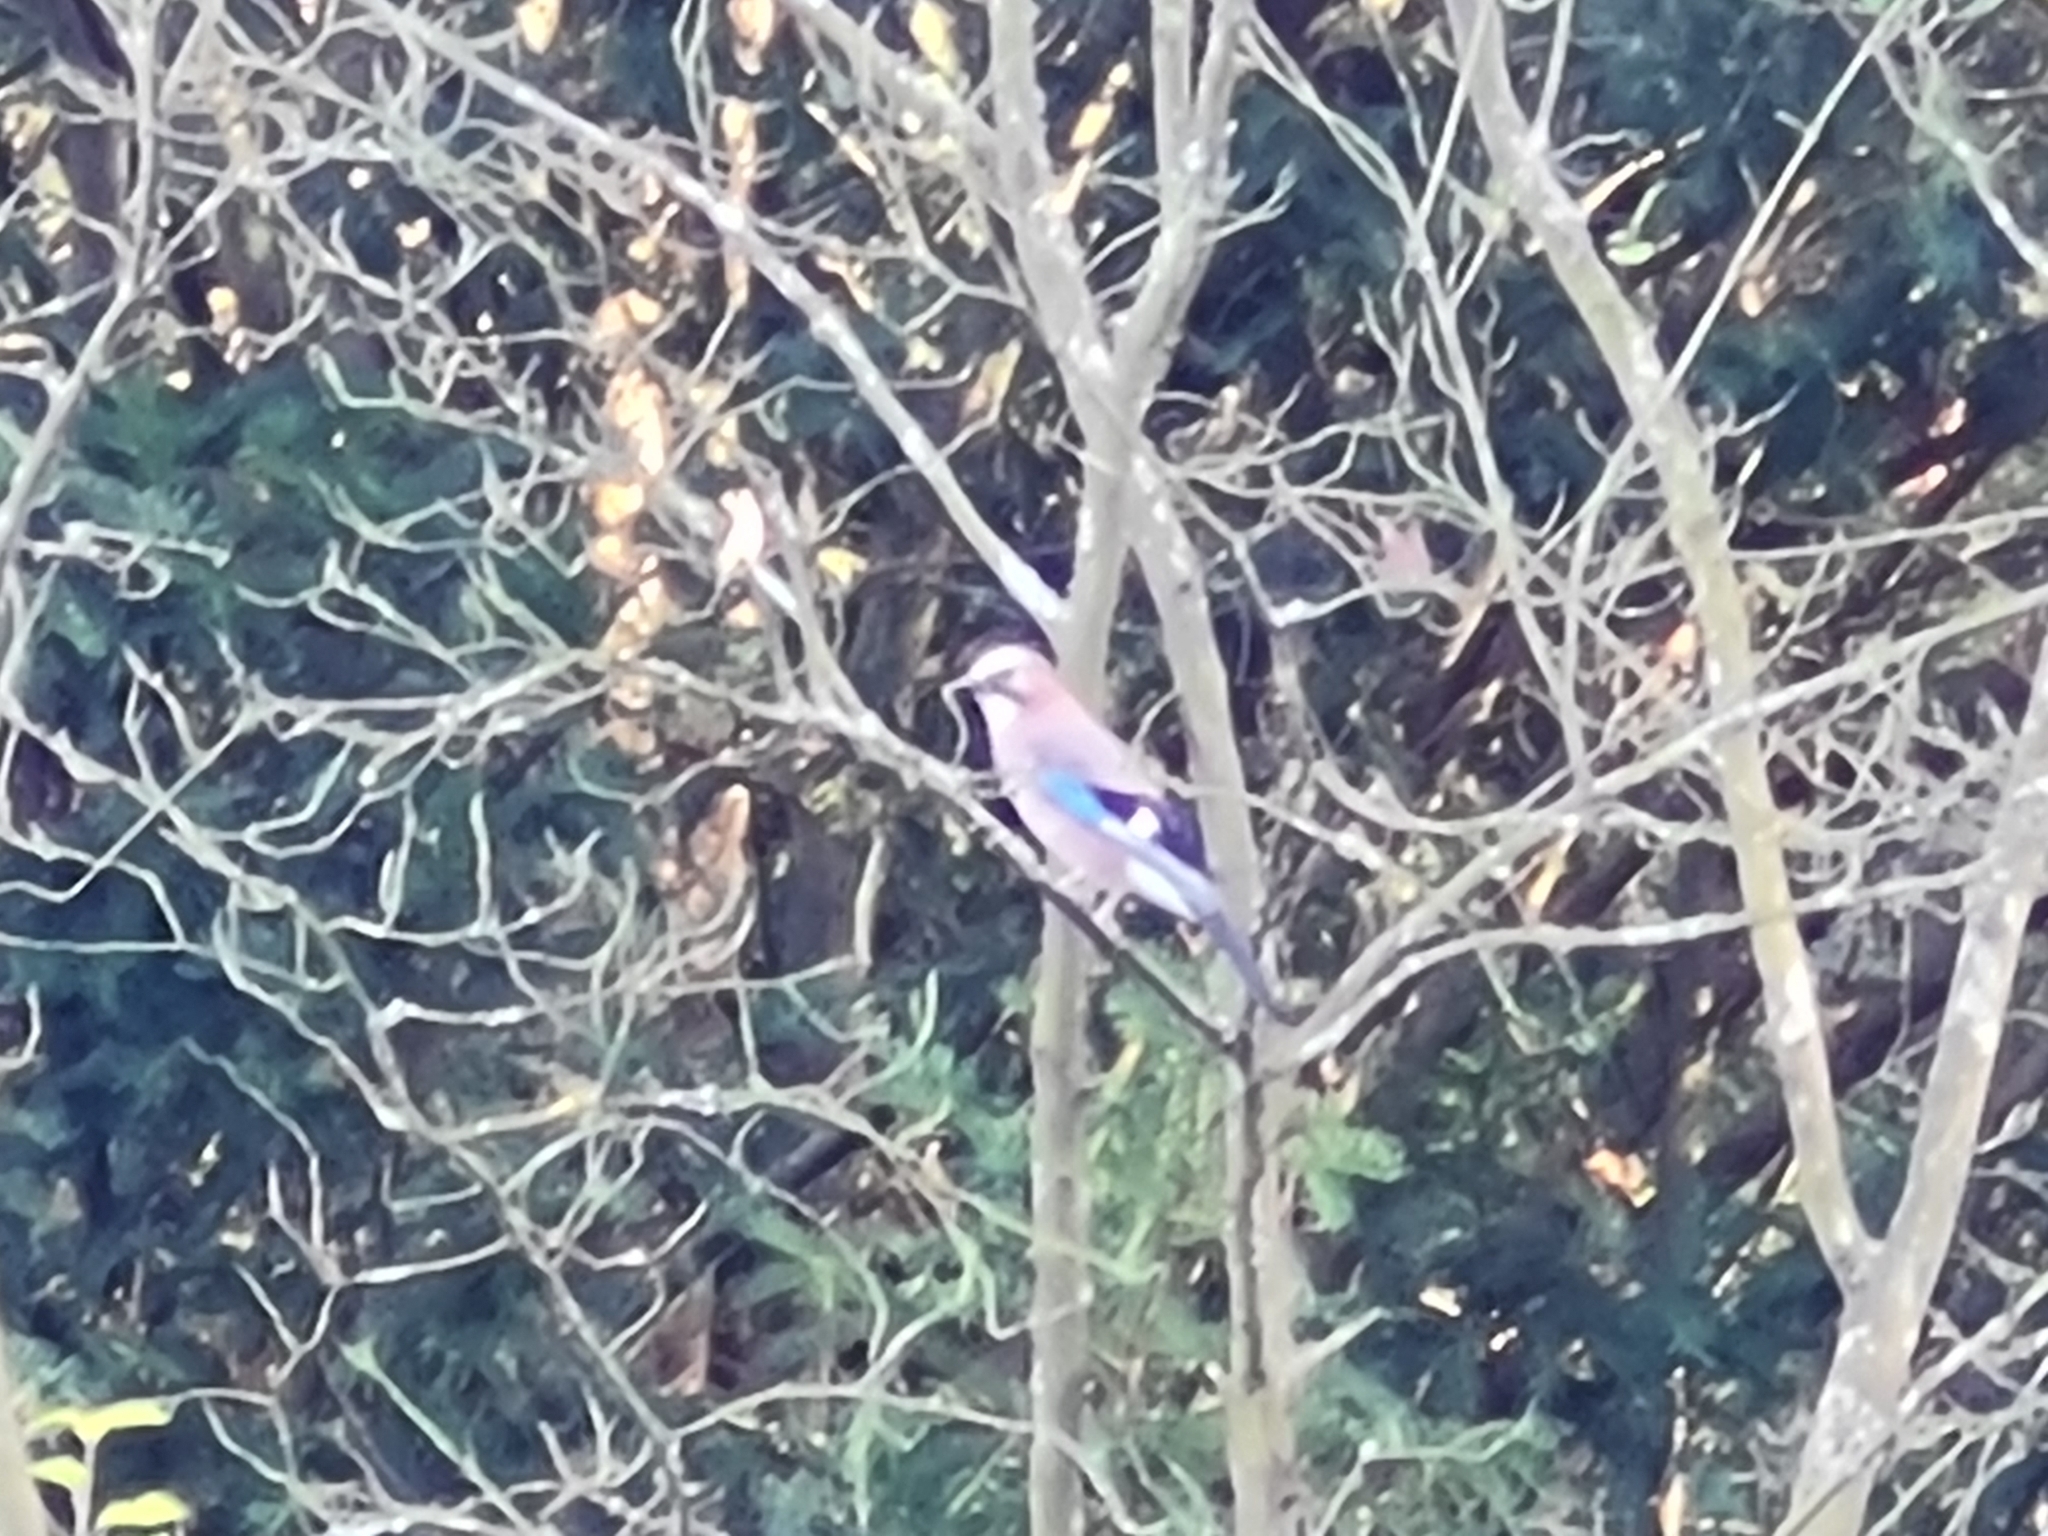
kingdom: Animalia
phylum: Chordata
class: Aves
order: Passeriformes
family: Corvidae
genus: Garrulus
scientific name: Garrulus glandarius
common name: Eurasian jay
